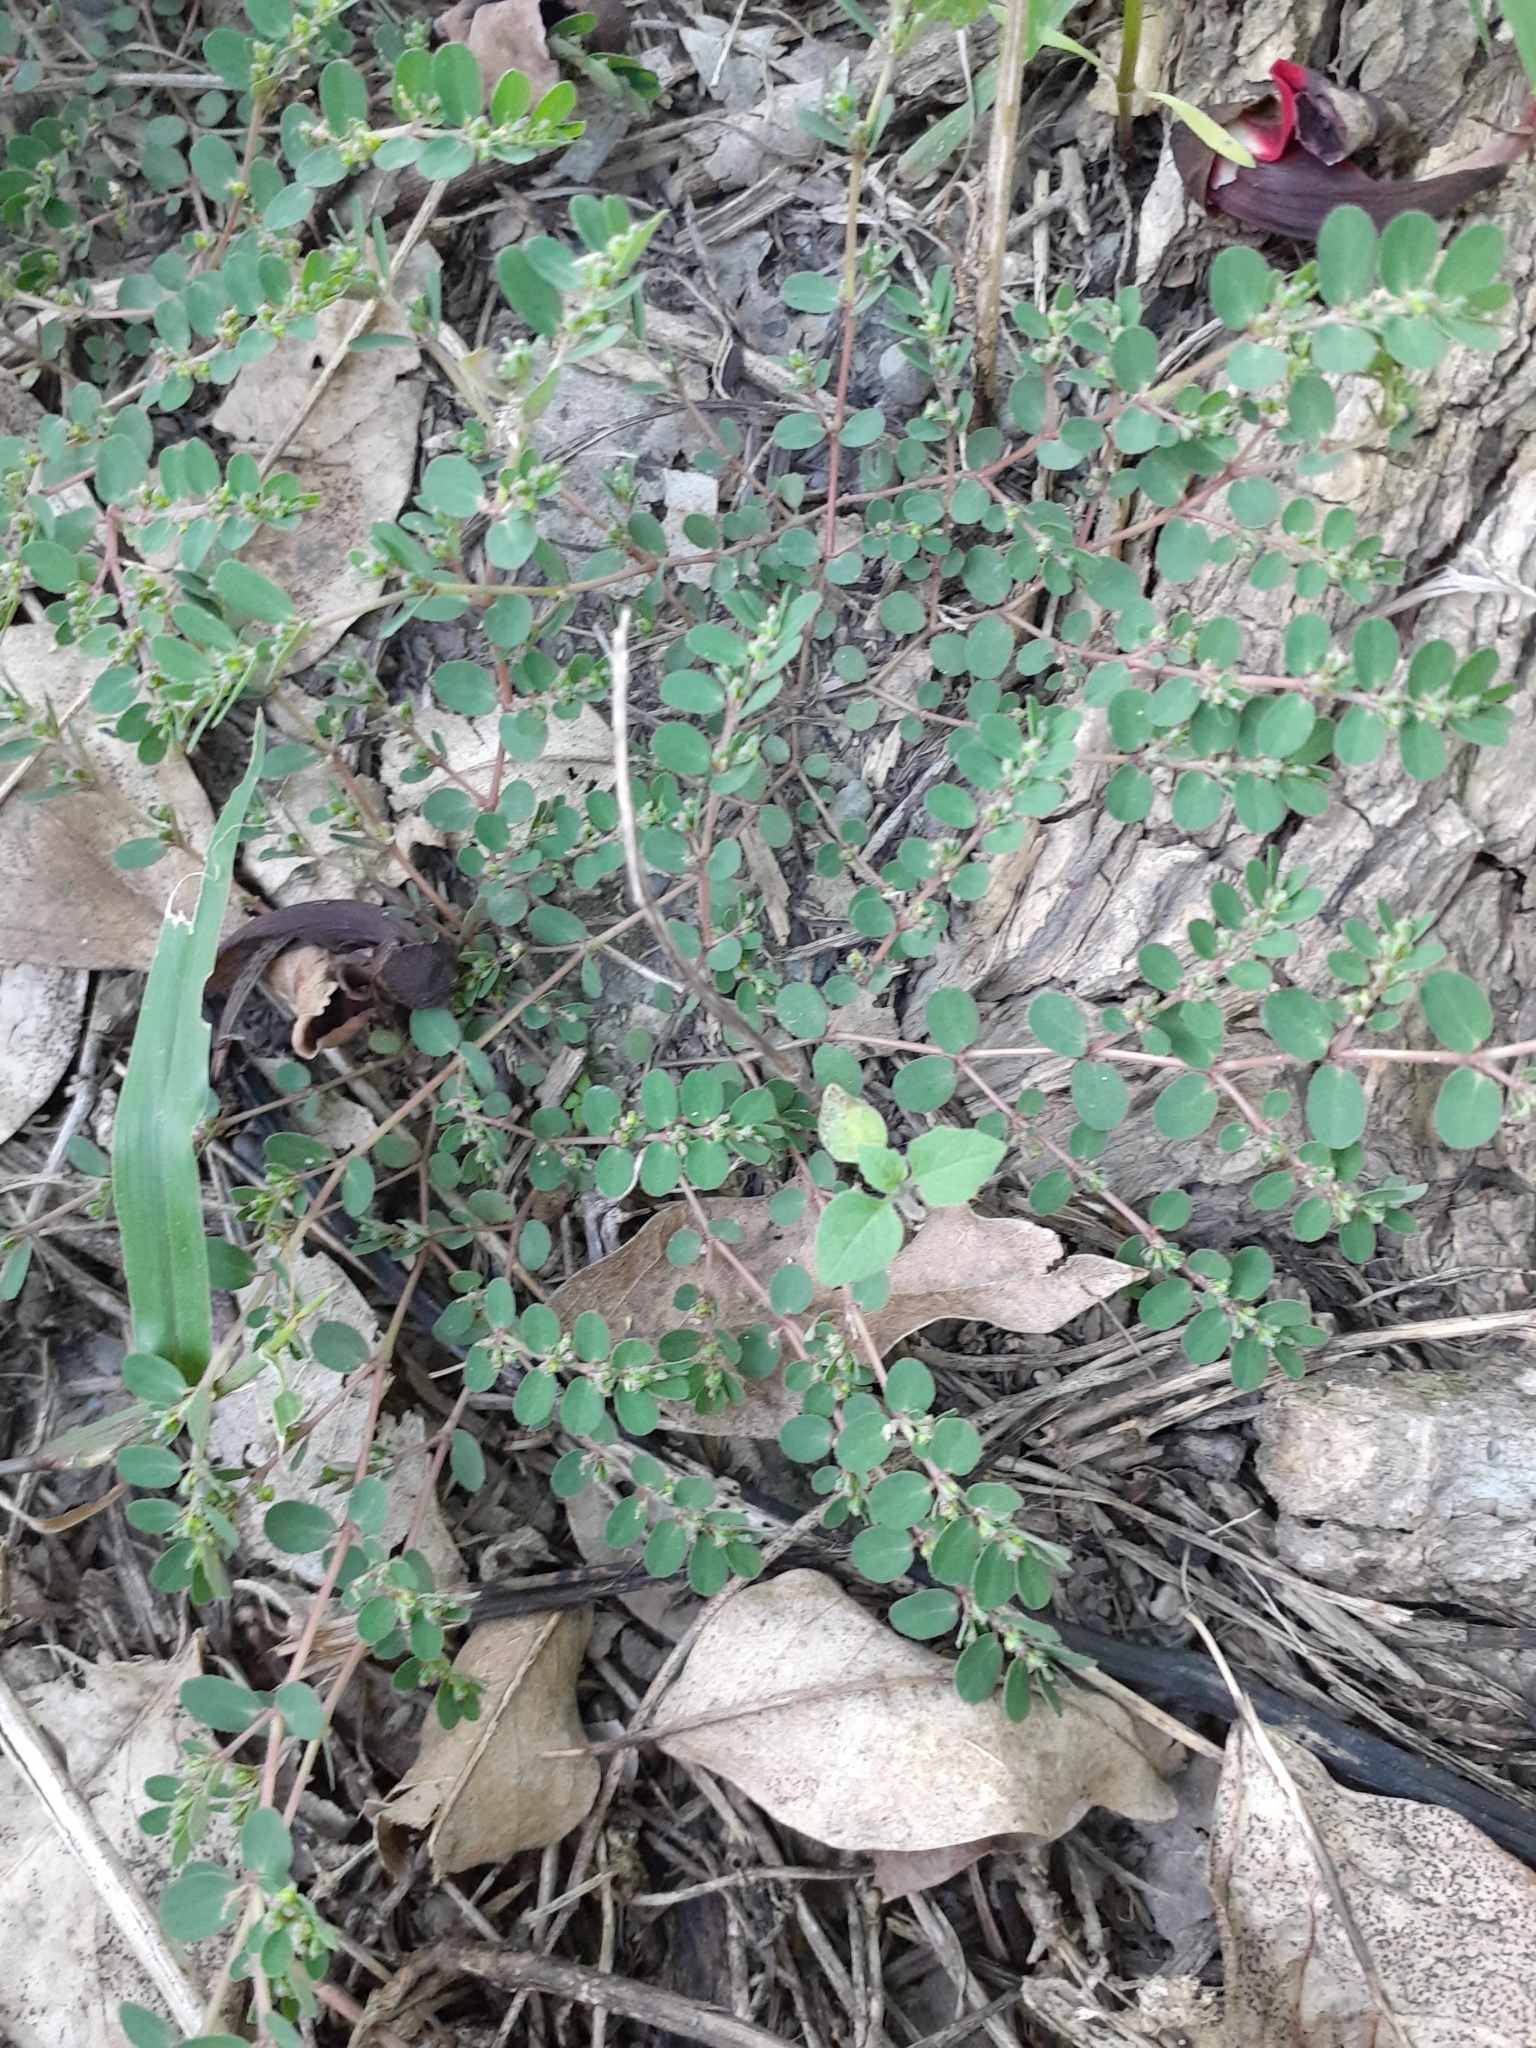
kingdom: Plantae
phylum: Tracheophyta
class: Magnoliopsida
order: Malpighiales
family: Euphorbiaceae
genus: Euphorbia
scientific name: Euphorbia prostrata
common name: Prostrate sandmat
